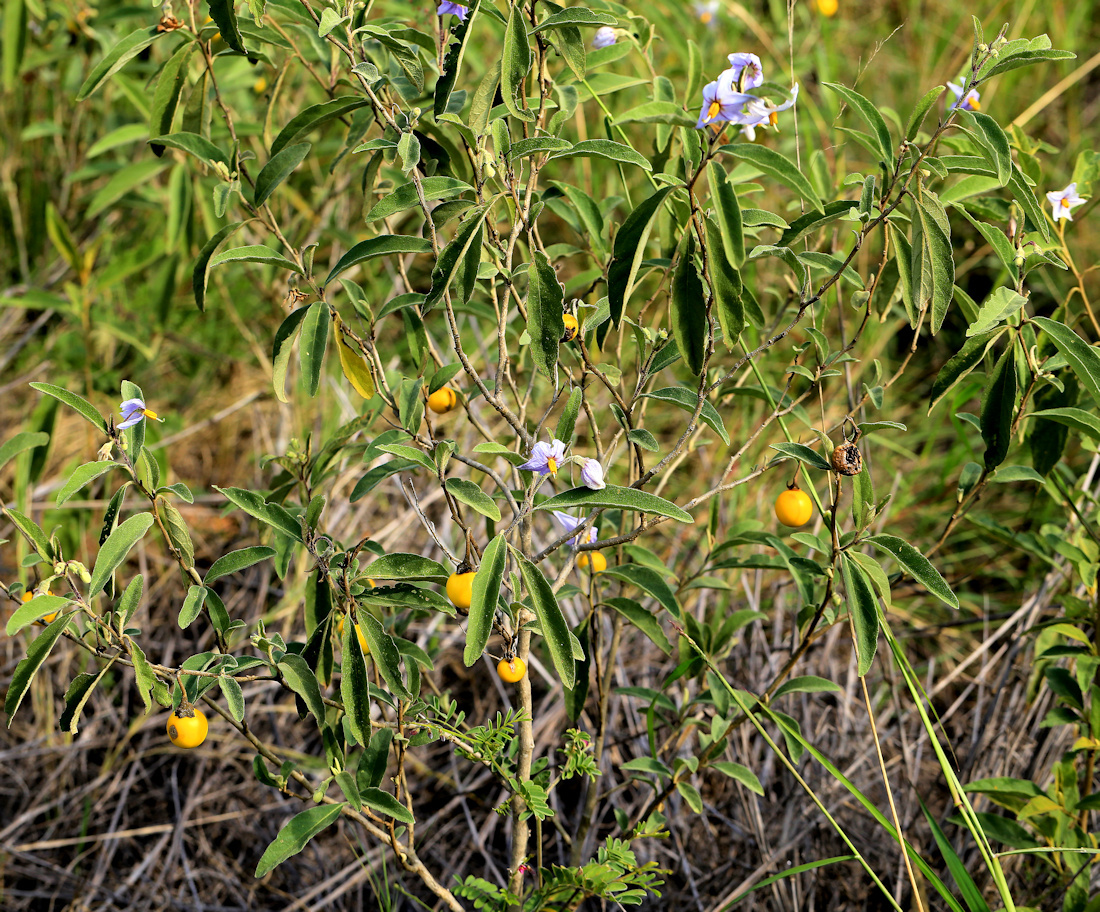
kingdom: Plantae
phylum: Tracheophyta
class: Magnoliopsida
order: Solanales
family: Solanaceae
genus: Solanum
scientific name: Solanum campylacanthum
